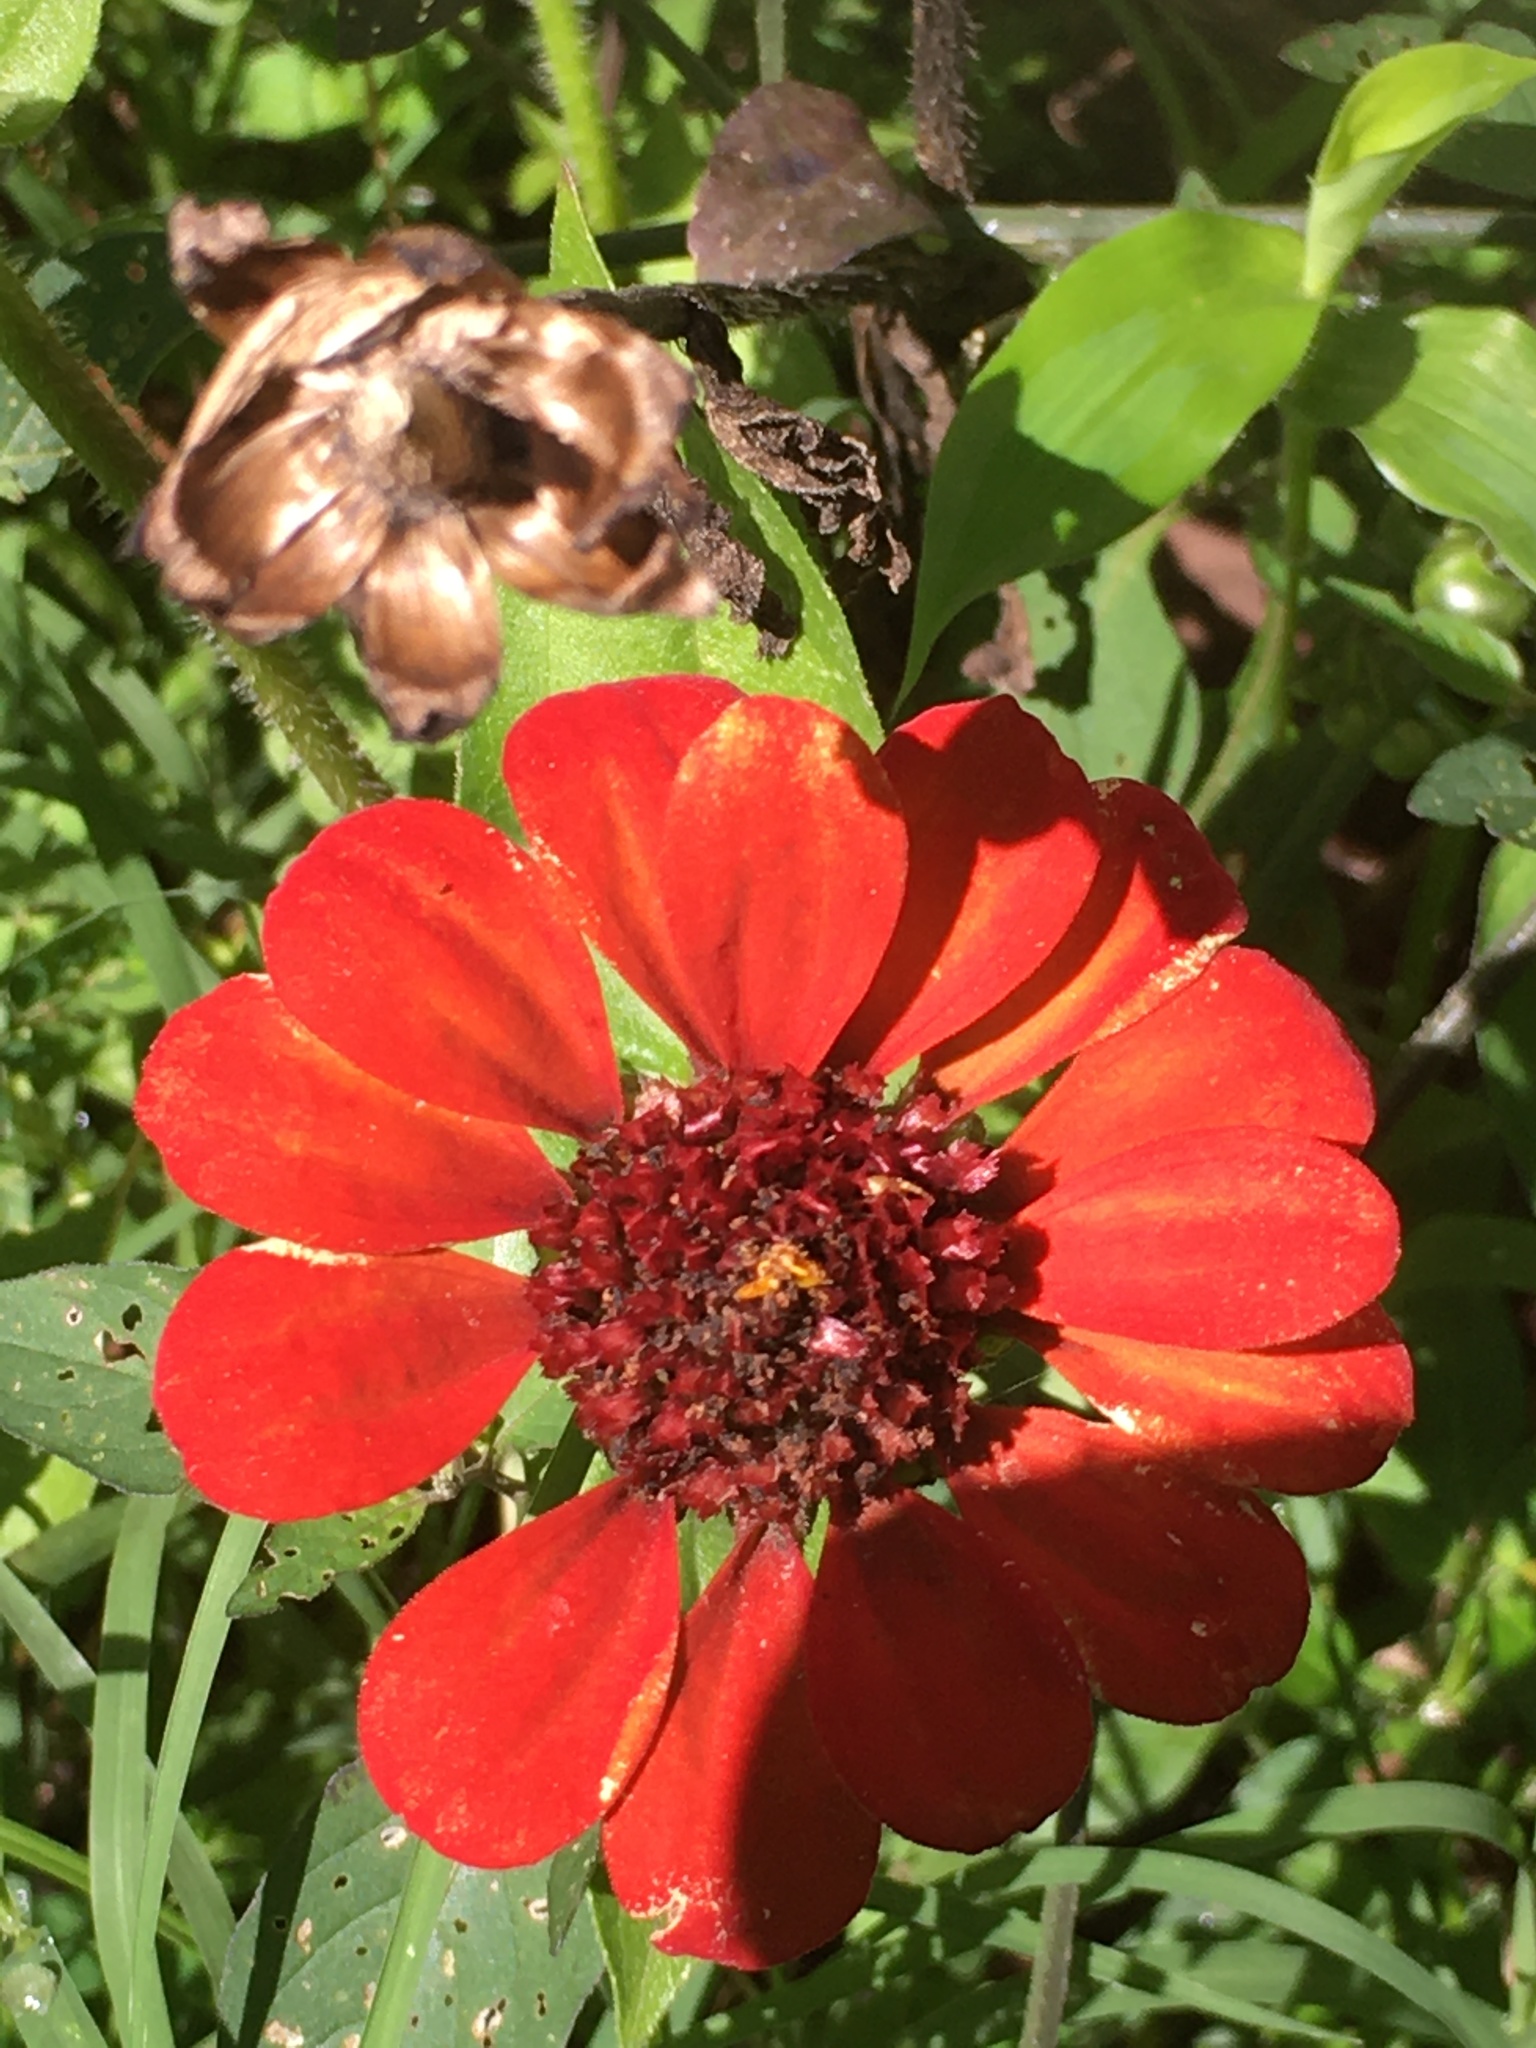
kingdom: Plantae
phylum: Tracheophyta
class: Magnoliopsida
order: Asterales
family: Asteraceae
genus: Zinnia
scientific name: Zinnia peruviana
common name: Peruvian zinnia
